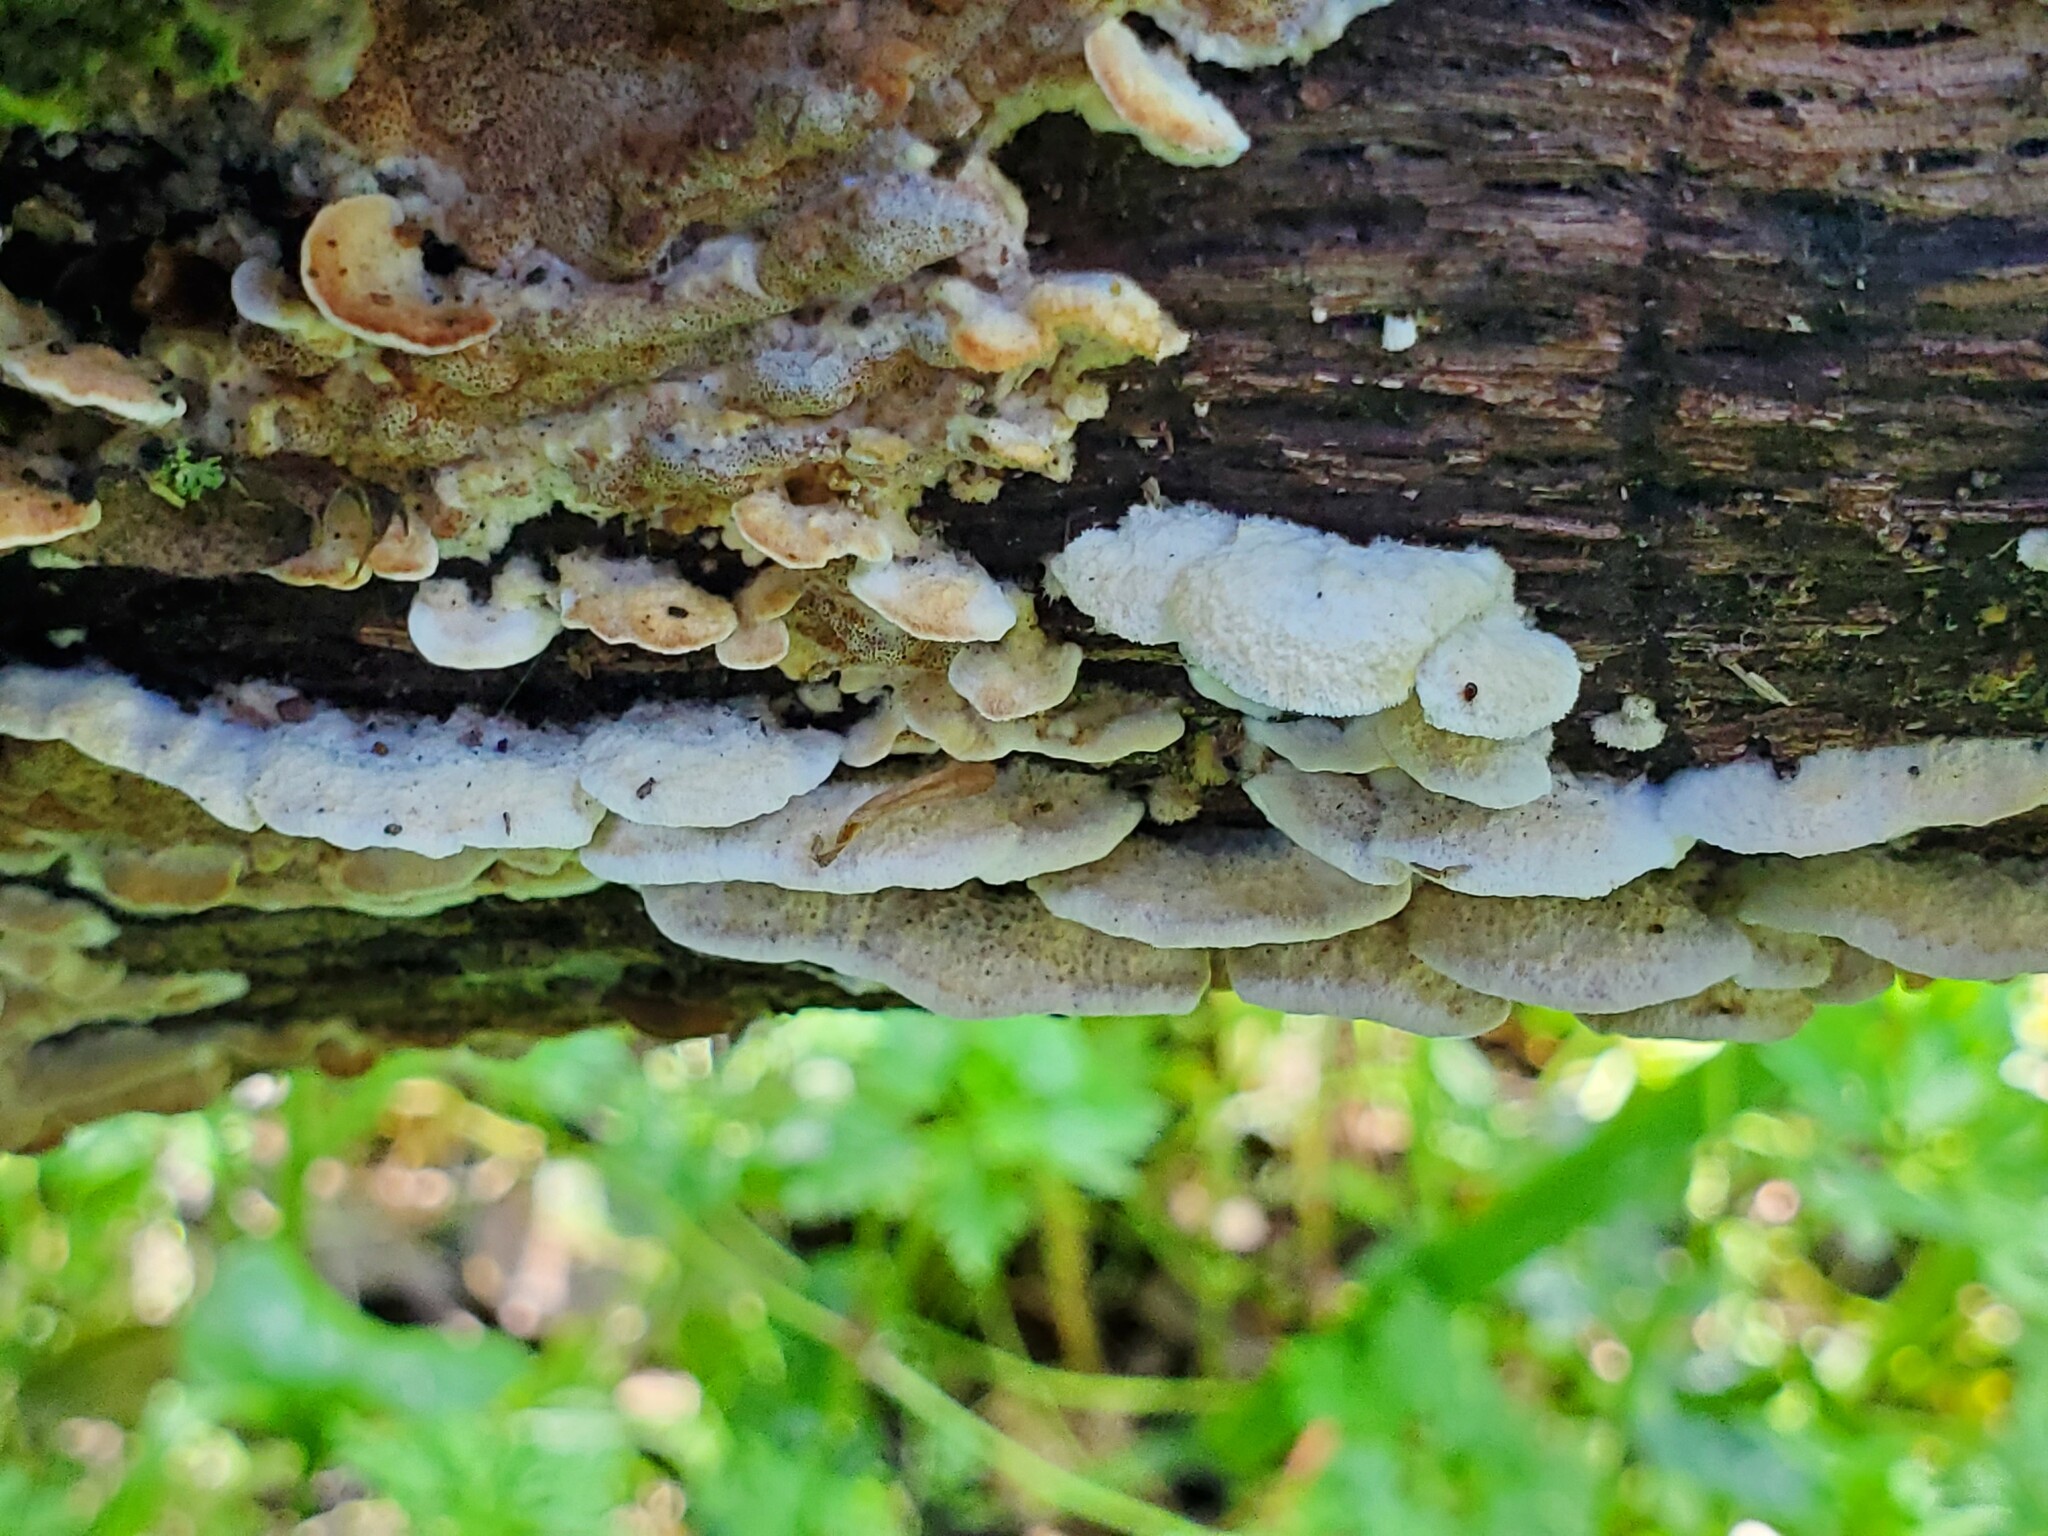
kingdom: Fungi
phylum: Basidiomycota
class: Agaricomycetes
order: Polyporales
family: Irpicaceae
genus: Vitreoporus
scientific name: Vitreoporus dichrous
